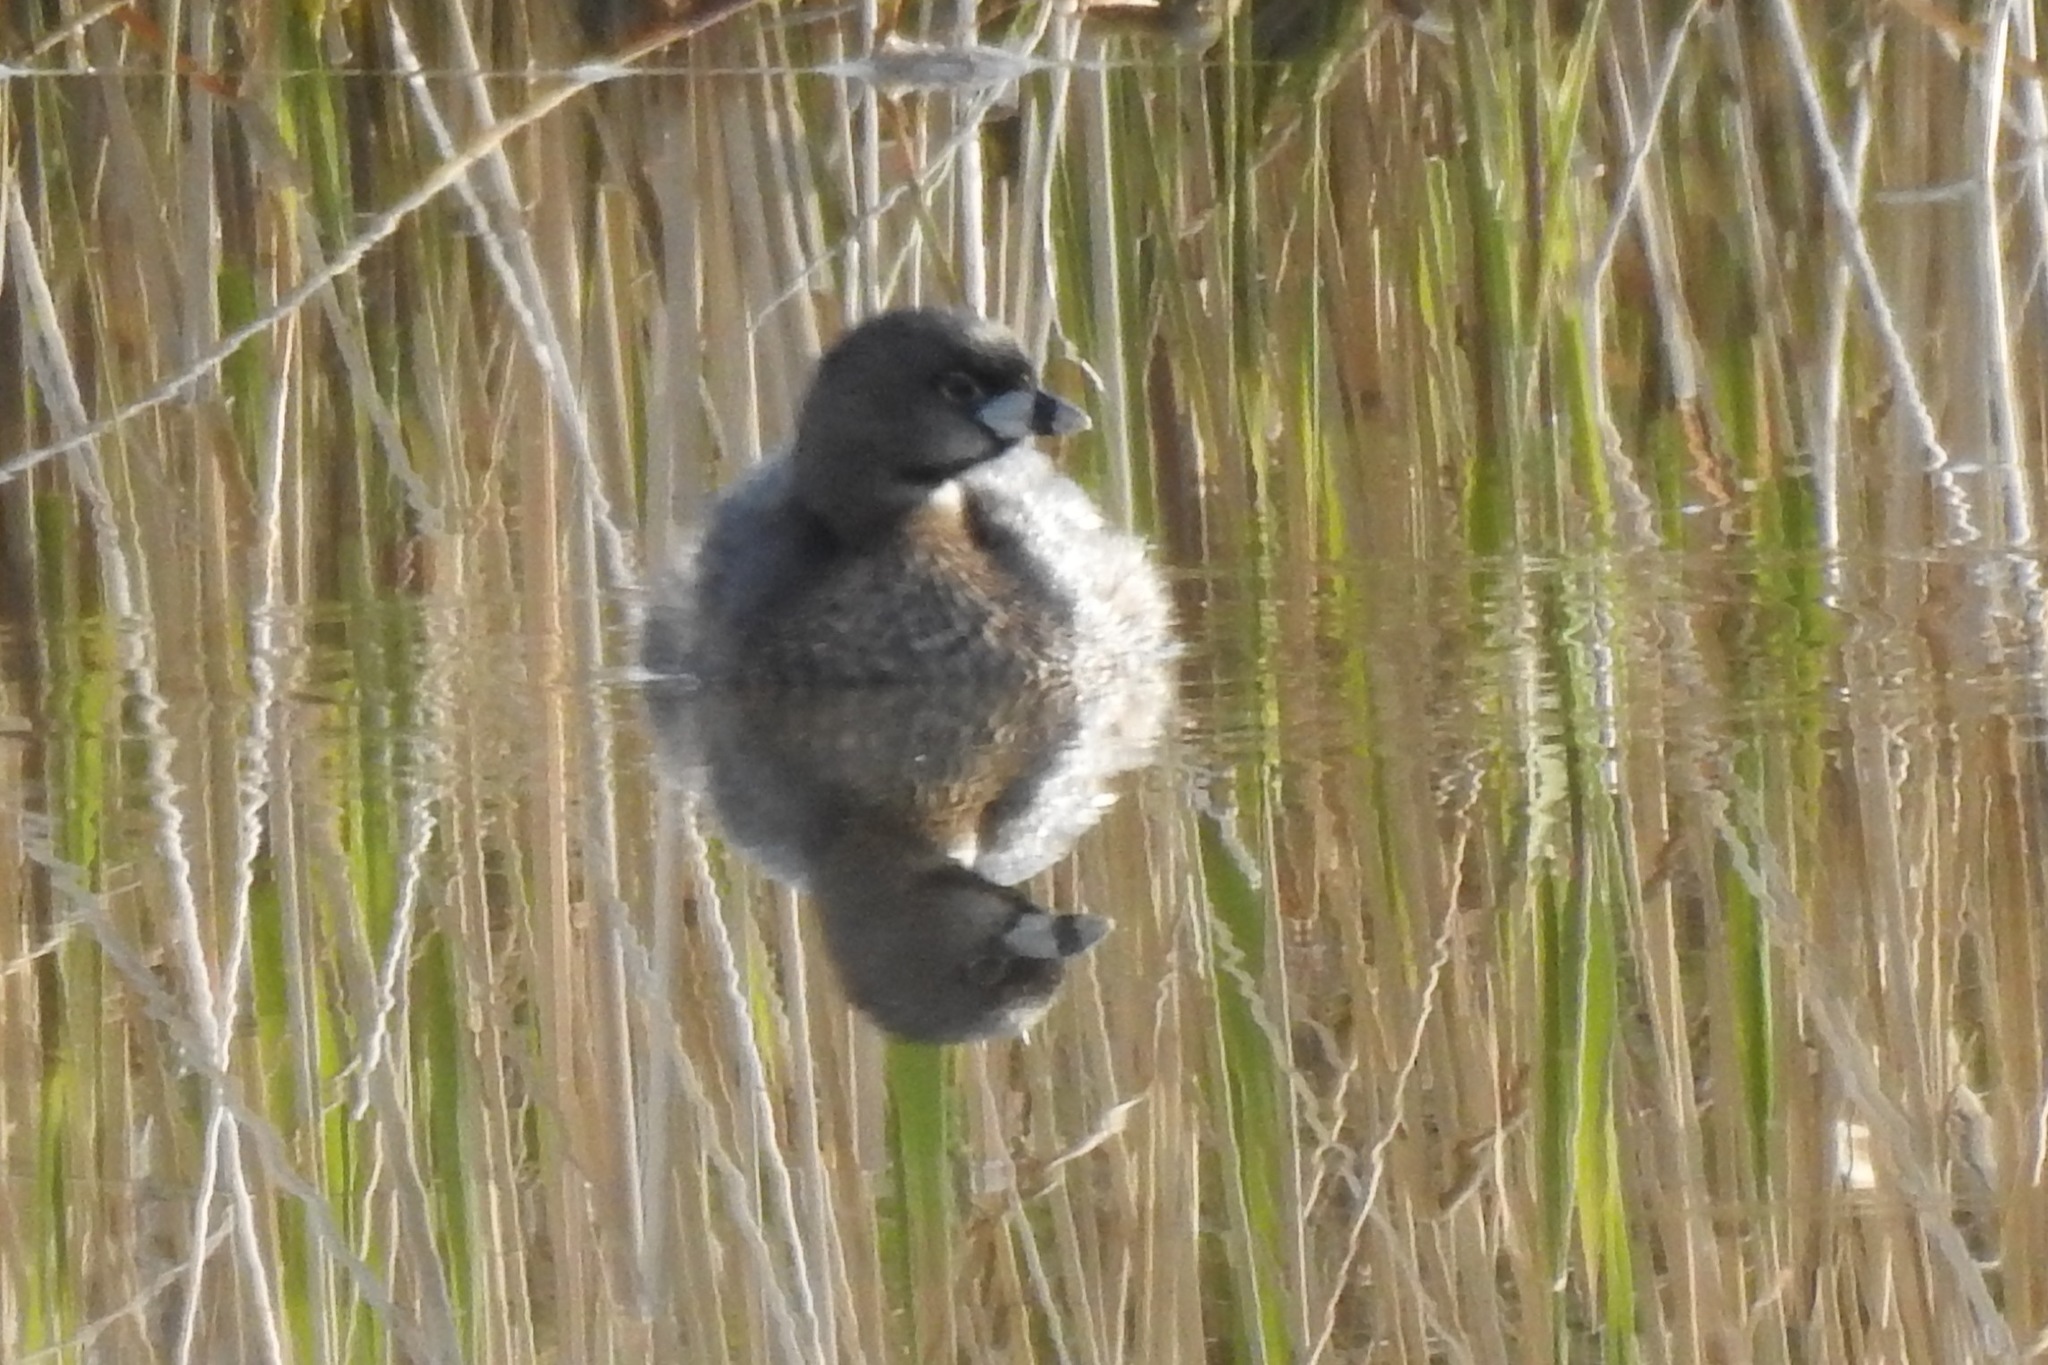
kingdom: Animalia
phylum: Chordata
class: Aves
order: Podicipediformes
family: Podicipedidae
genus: Podilymbus
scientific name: Podilymbus podiceps
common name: Pied-billed grebe
